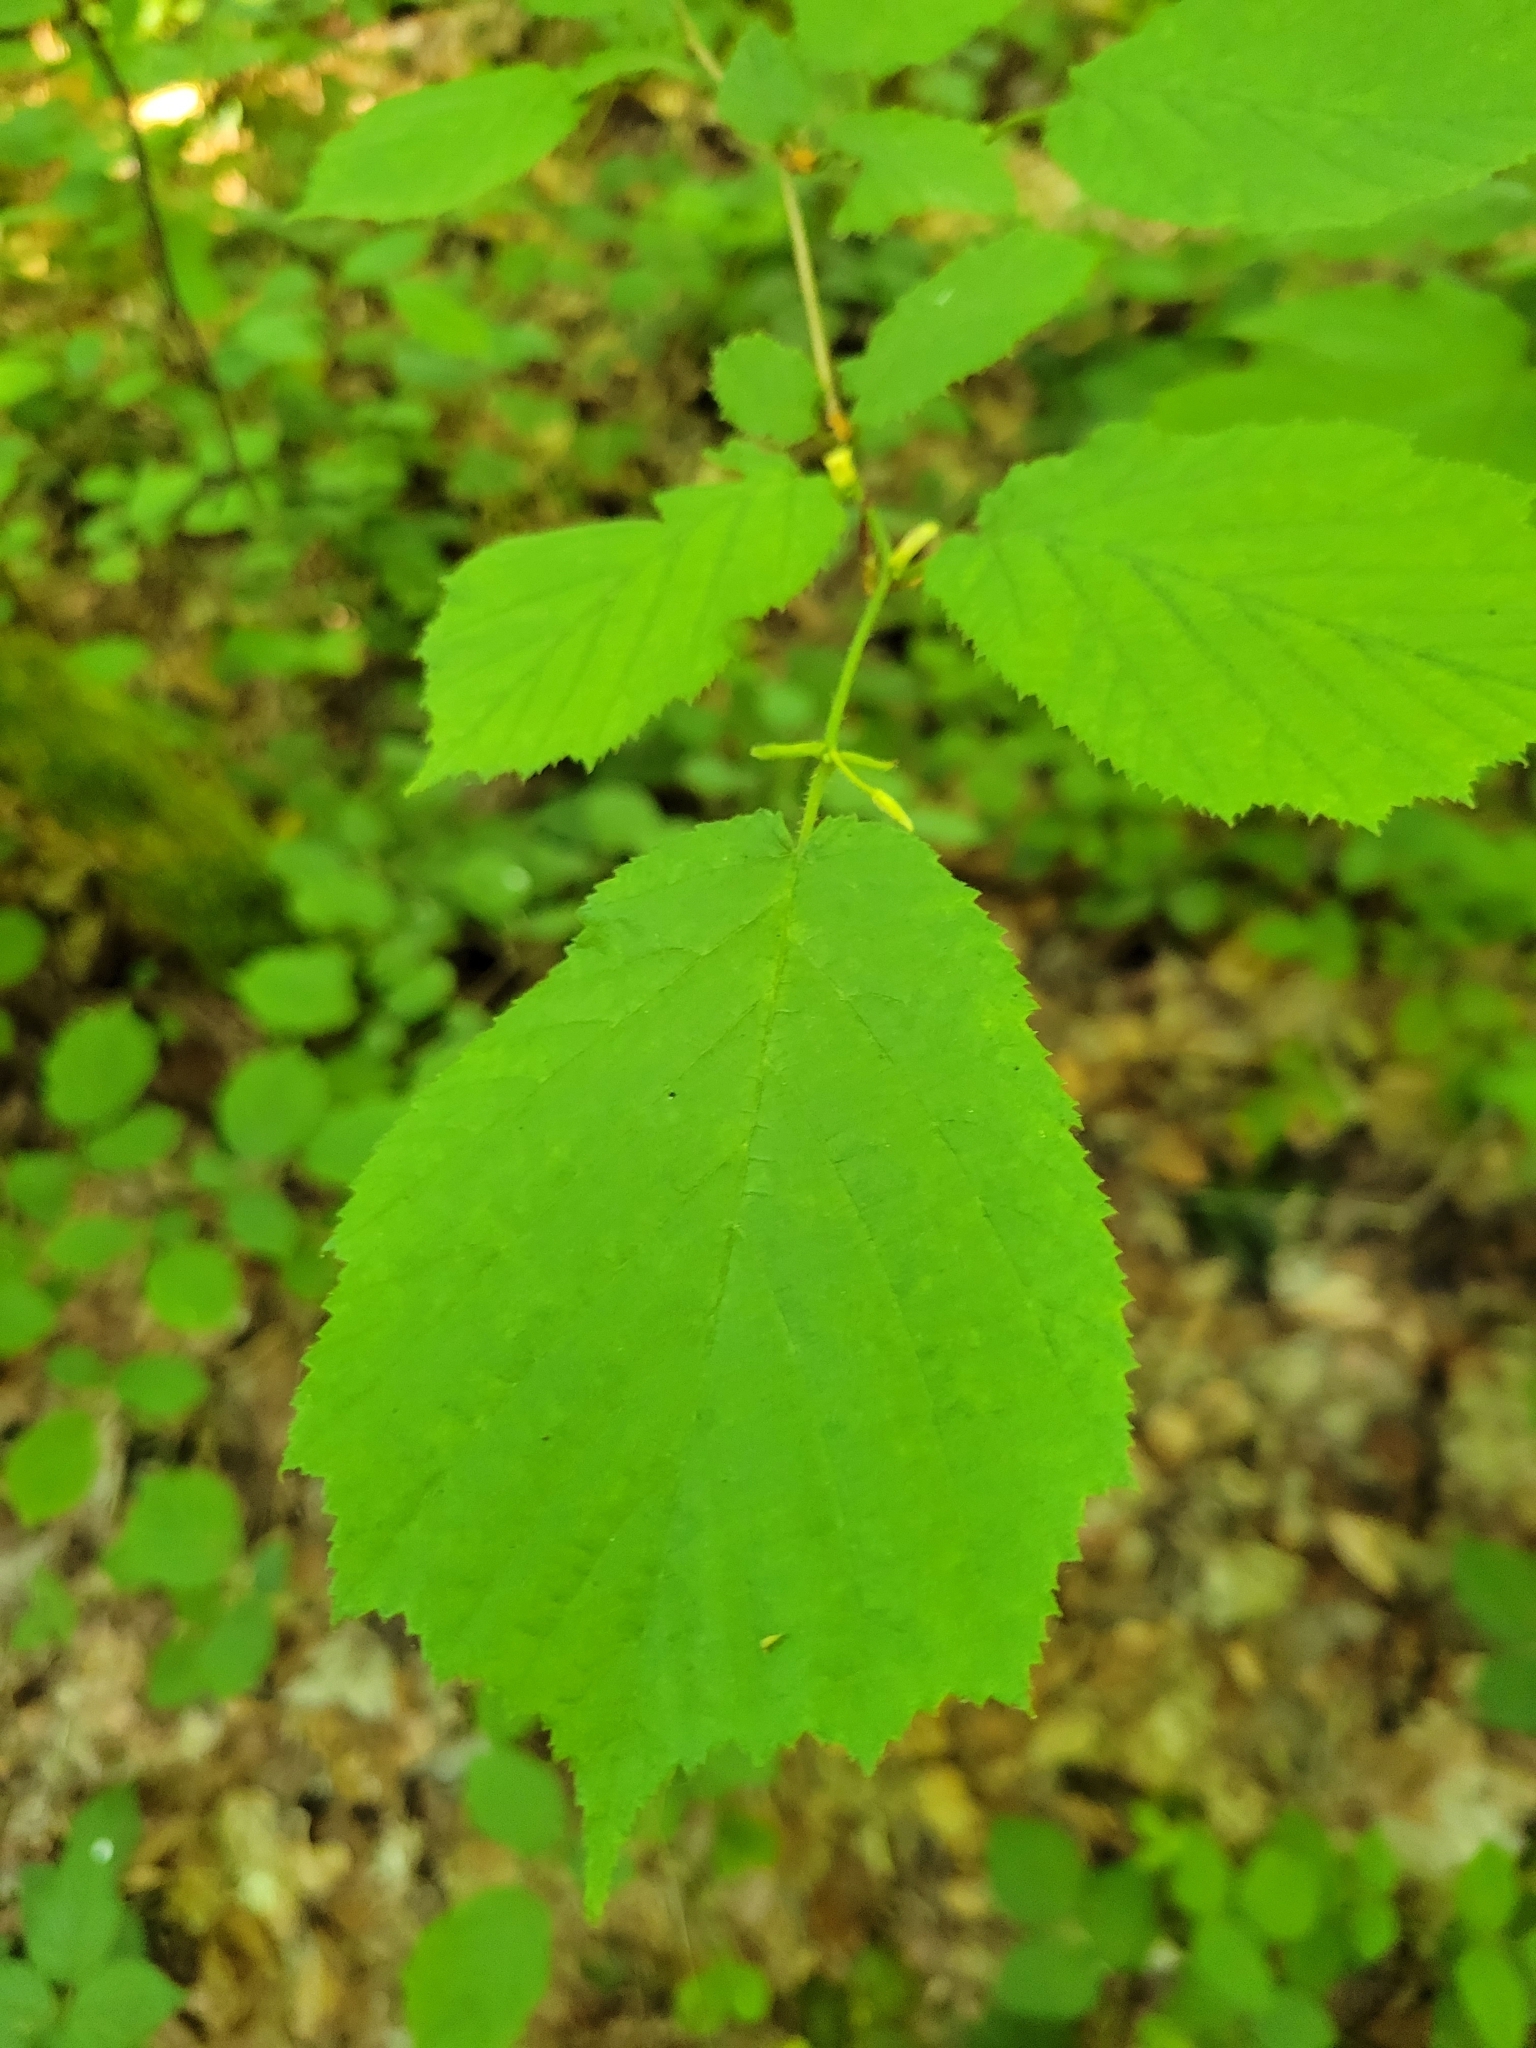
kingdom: Plantae
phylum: Tracheophyta
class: Magnoliopsida
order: Fagales
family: Betulaceae
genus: Corylus
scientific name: Corylus avellana
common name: European hazel
